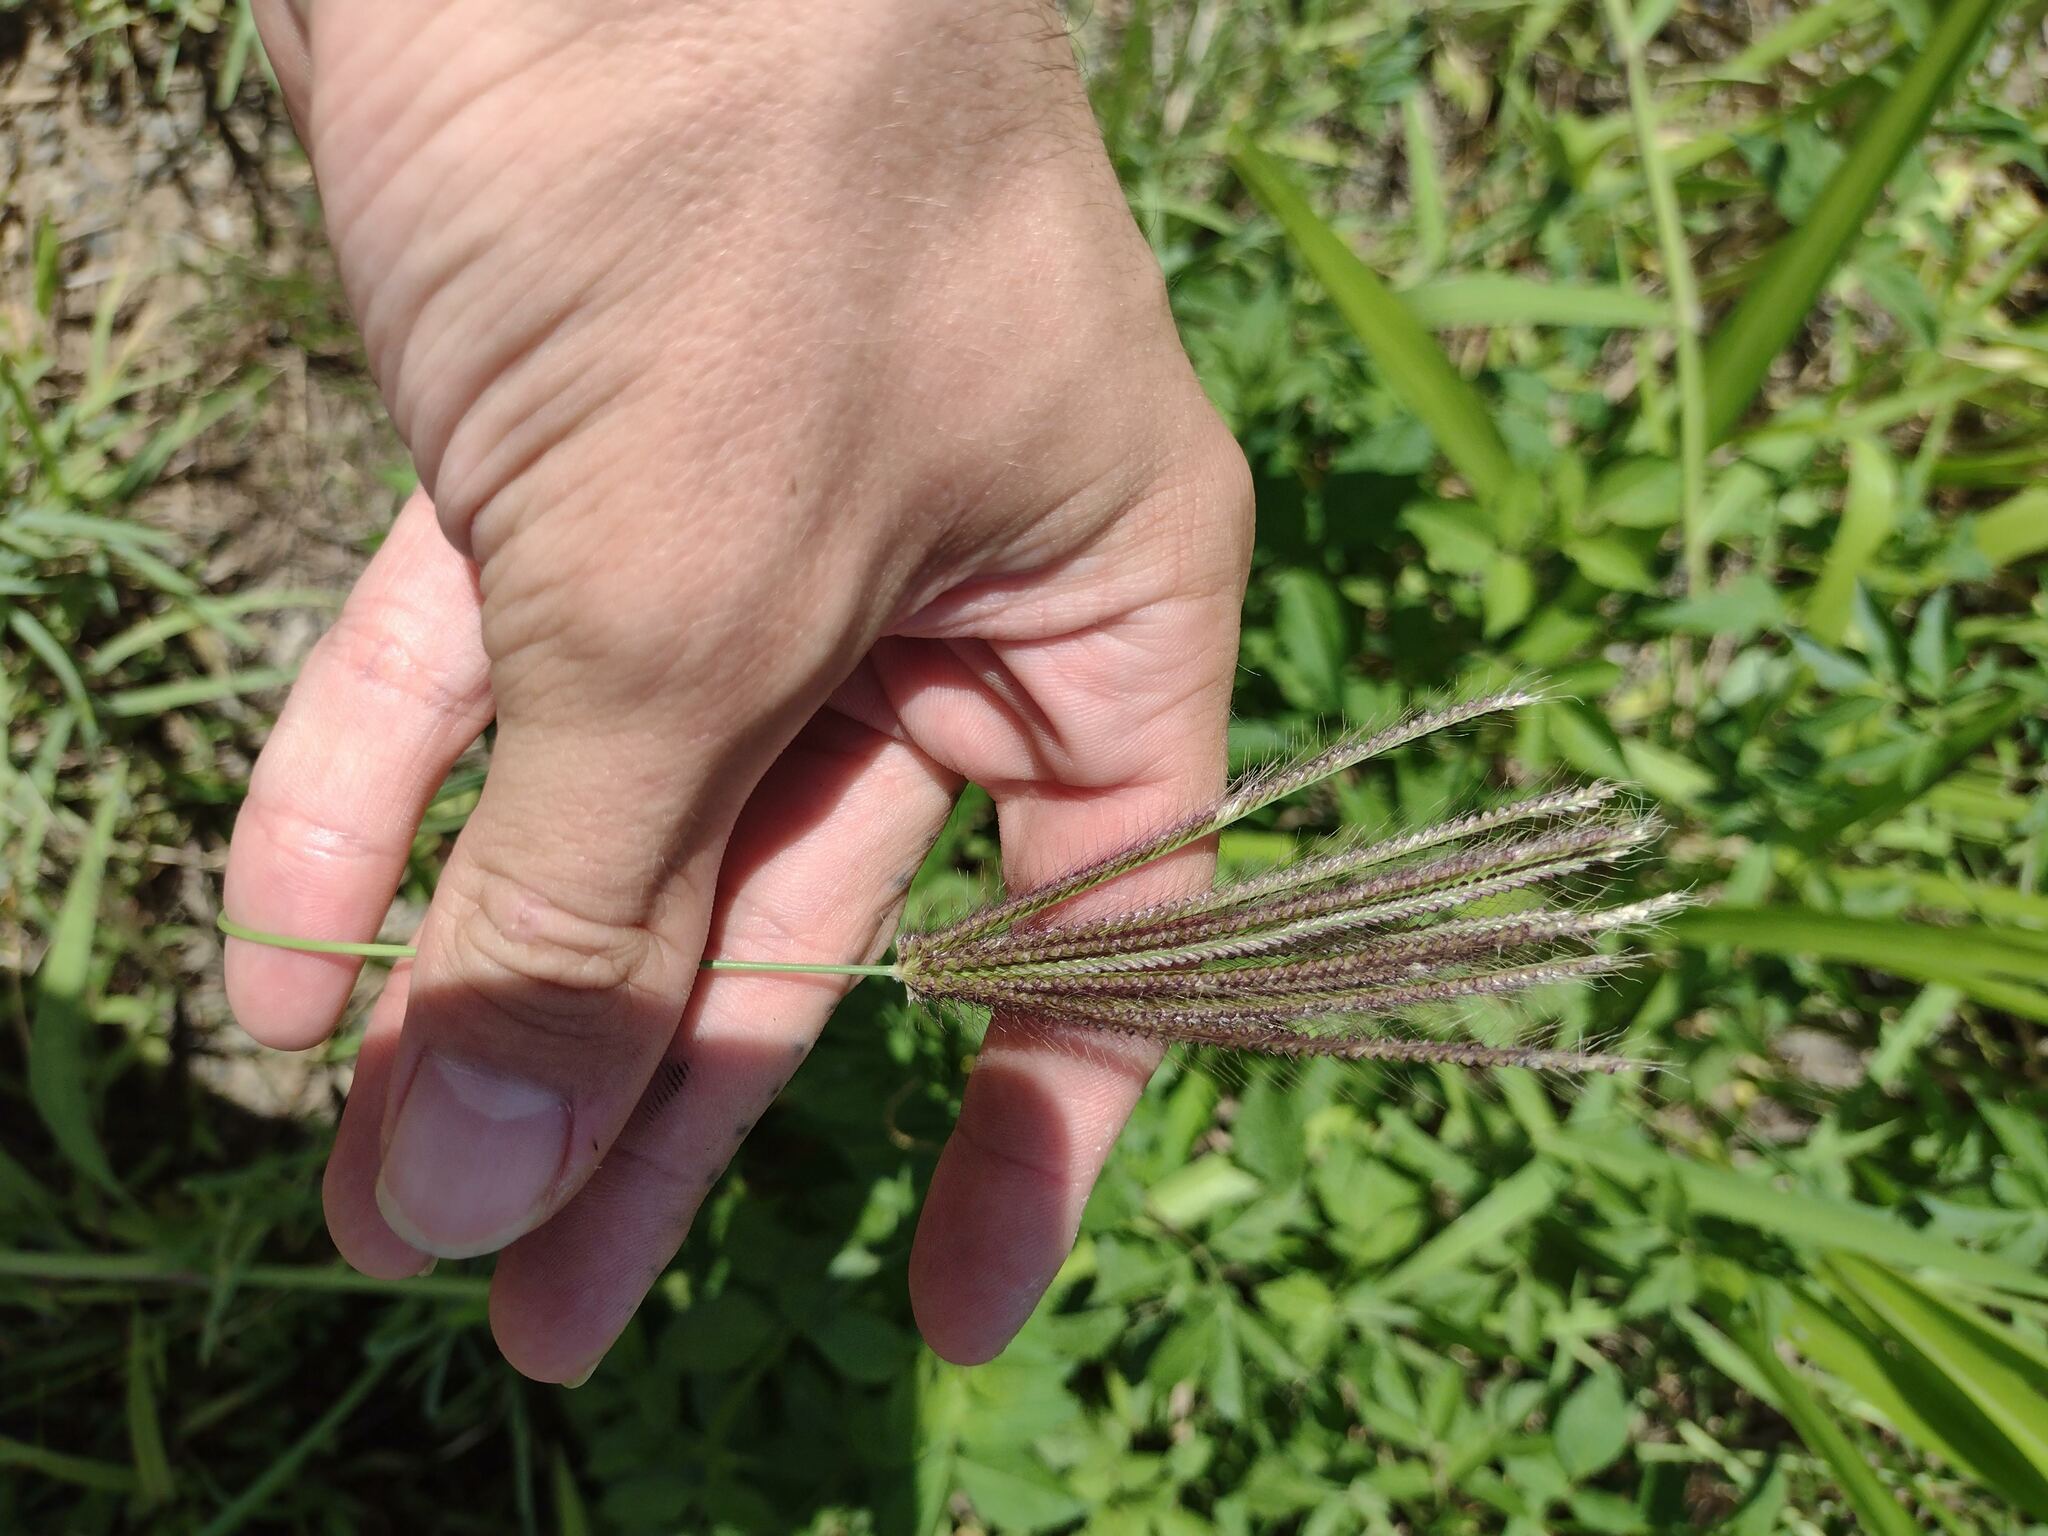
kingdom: Plantae
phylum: Tracheophyta
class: Liliopsida
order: Poales
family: Poaceae
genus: Chloris
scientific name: Chloris barbata
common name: Swollen fingergrass
